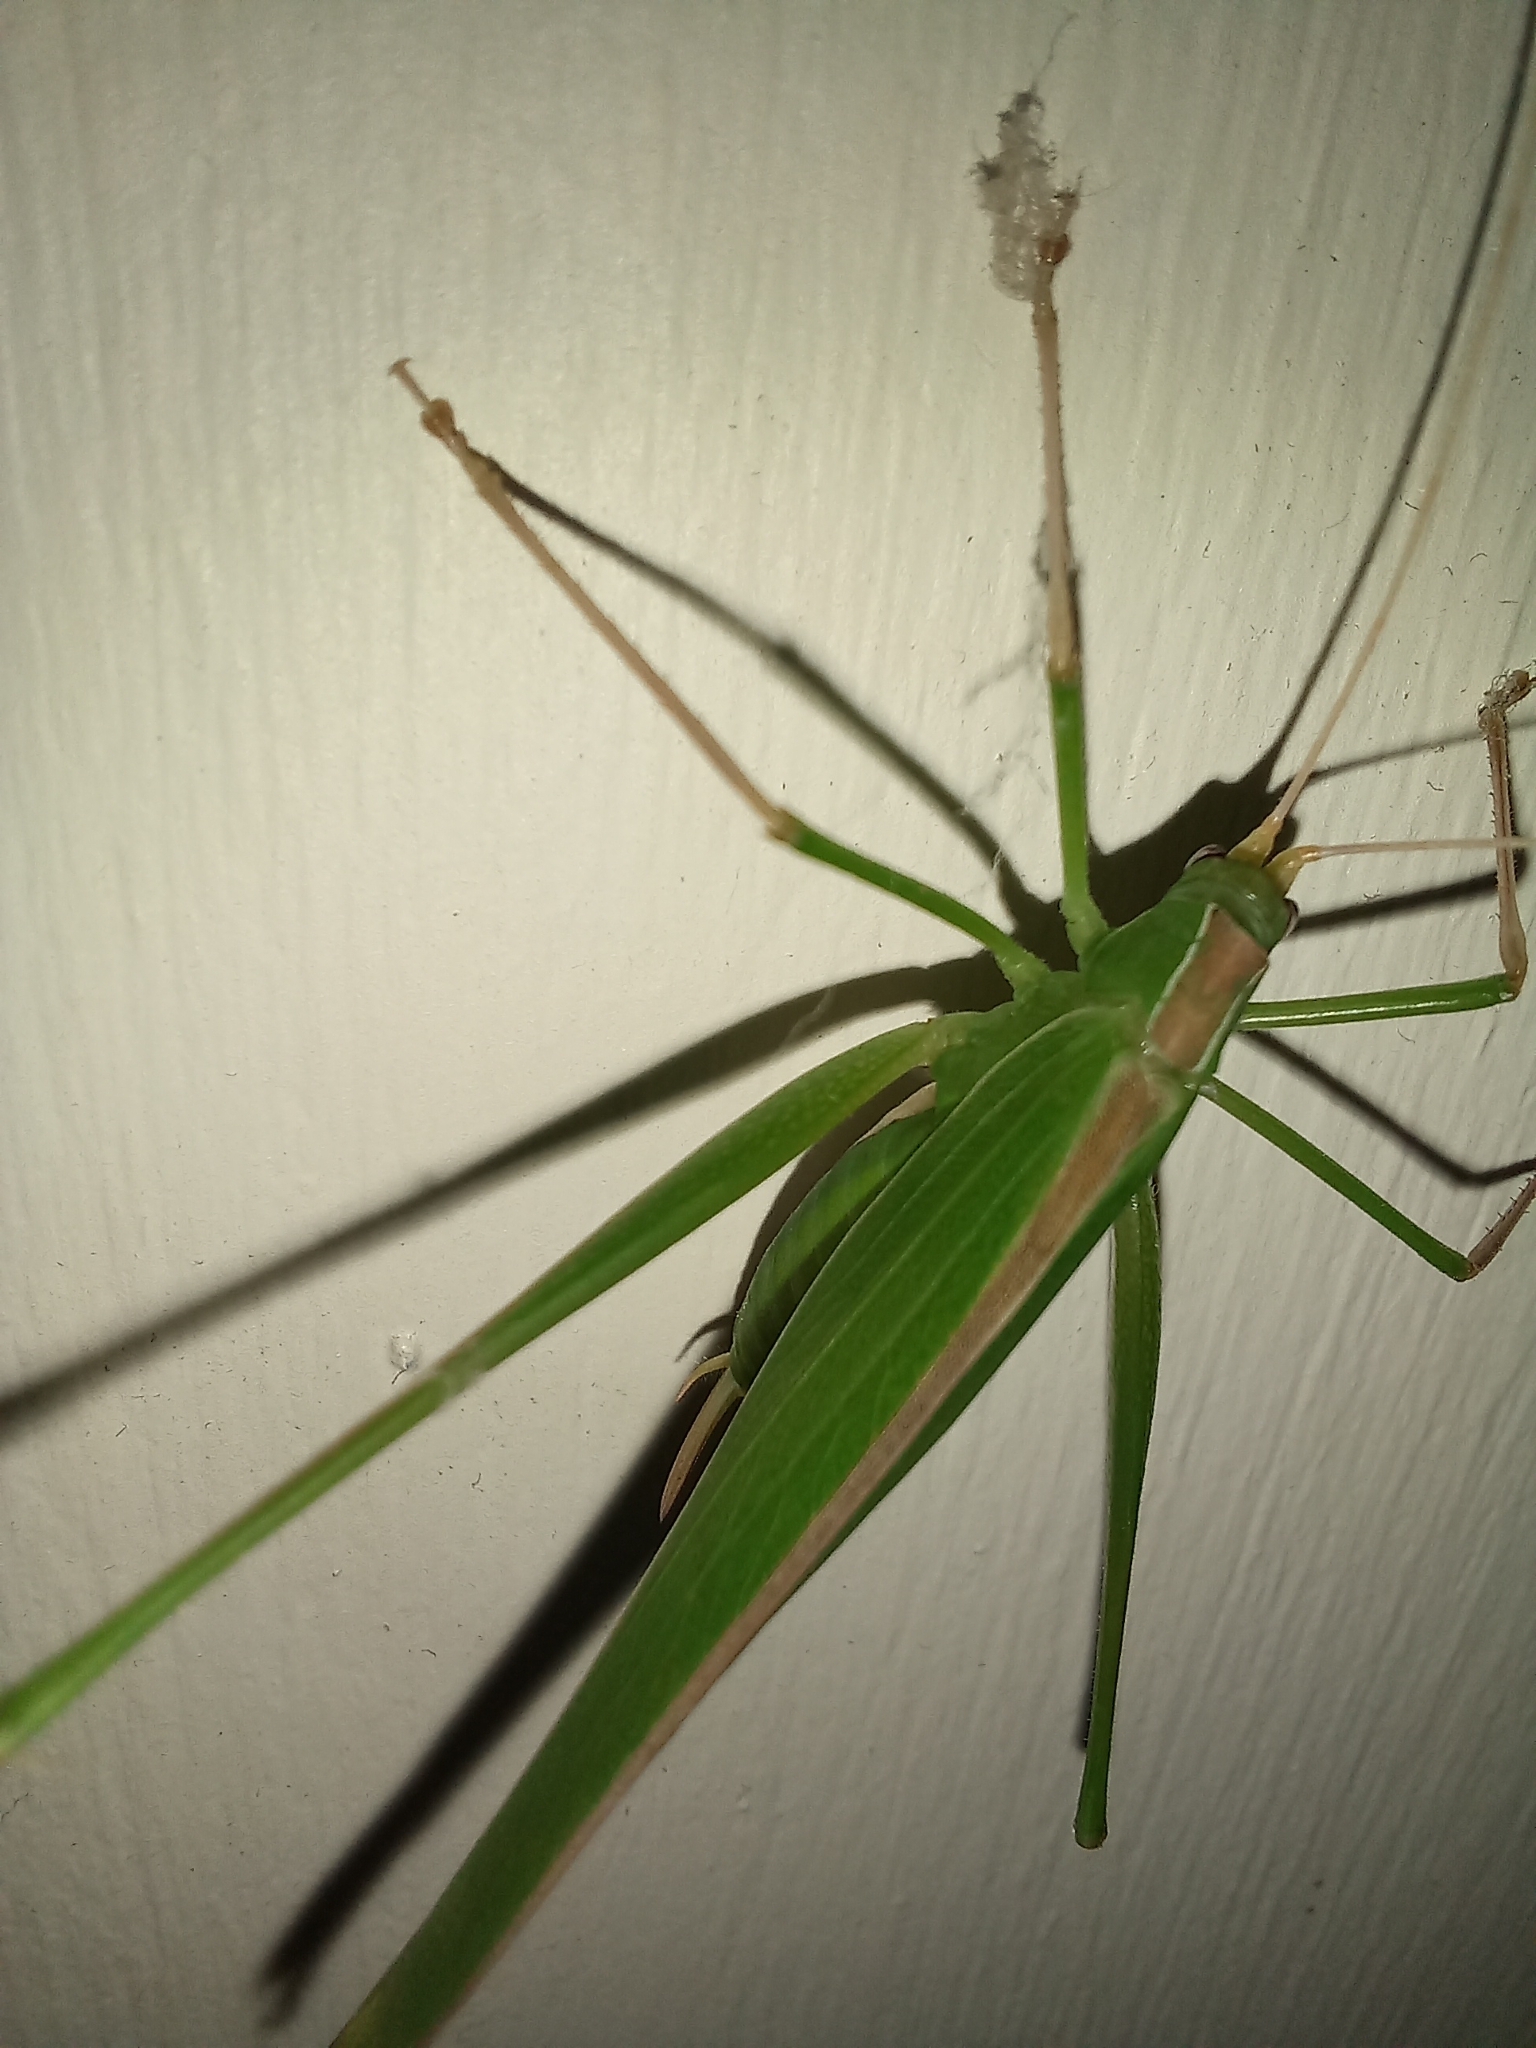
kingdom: Animalia
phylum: Arthropoda
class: Insecta
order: Orthoptera
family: Tettigoniidae
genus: Tylopsis
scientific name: Tylopsis continua
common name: Common grass katydid
